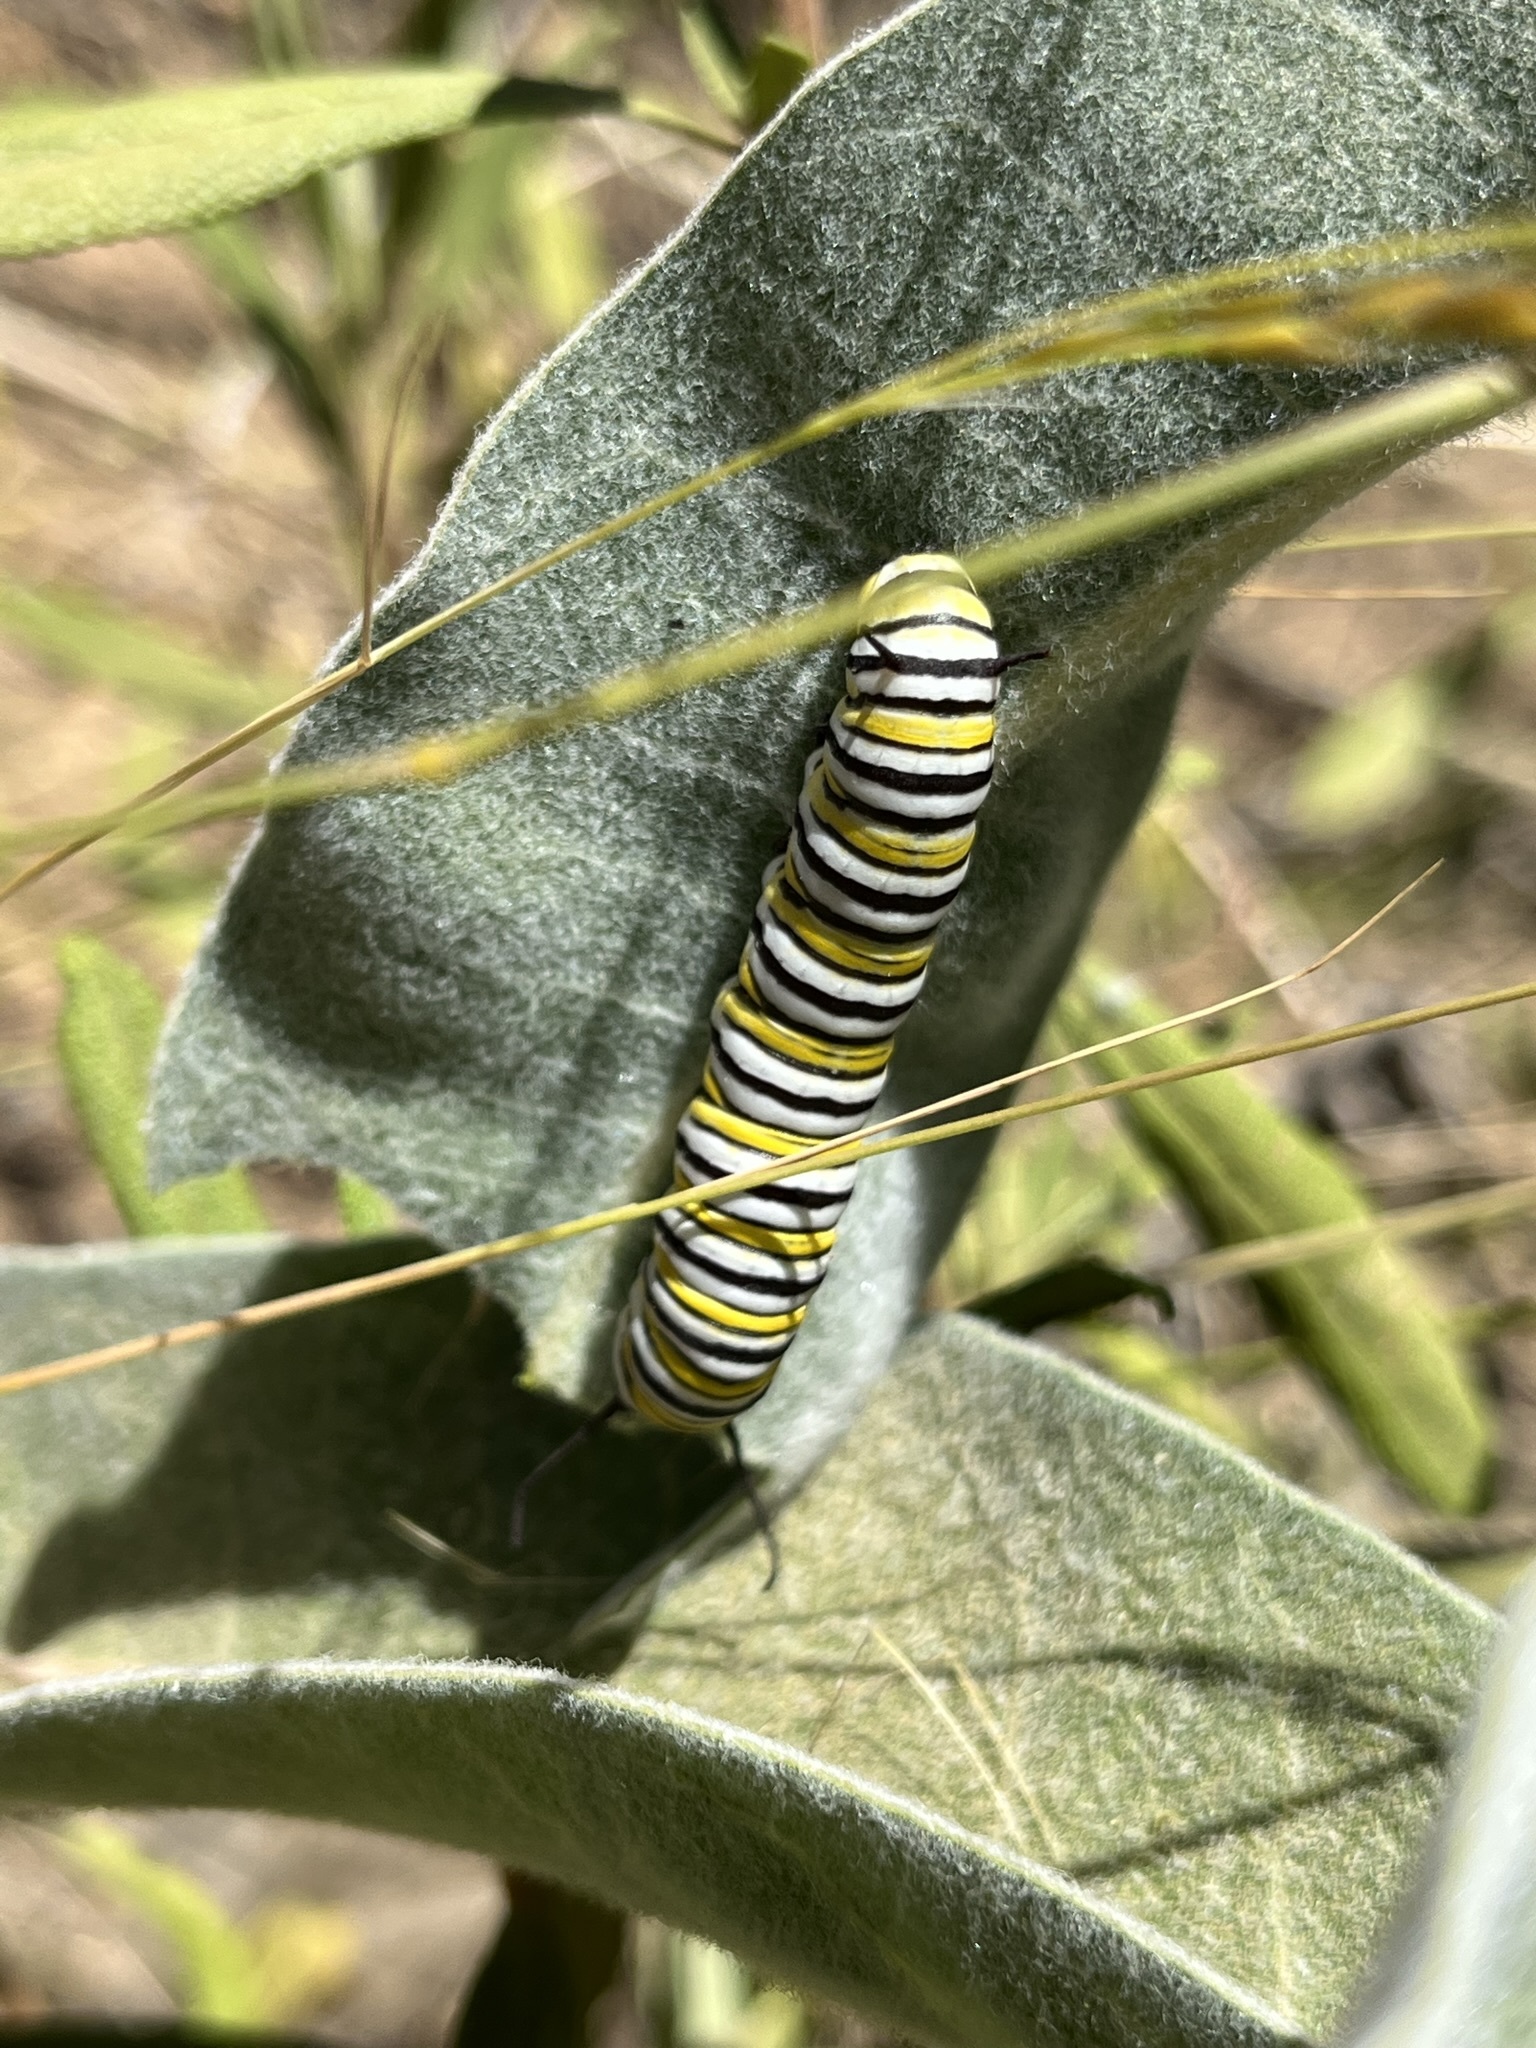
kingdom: Animalia
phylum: Arthropoda
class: Insecta
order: Lepidoptera
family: Nymphalidae
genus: Danaus
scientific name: Danaus plexippus
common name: Monarch
